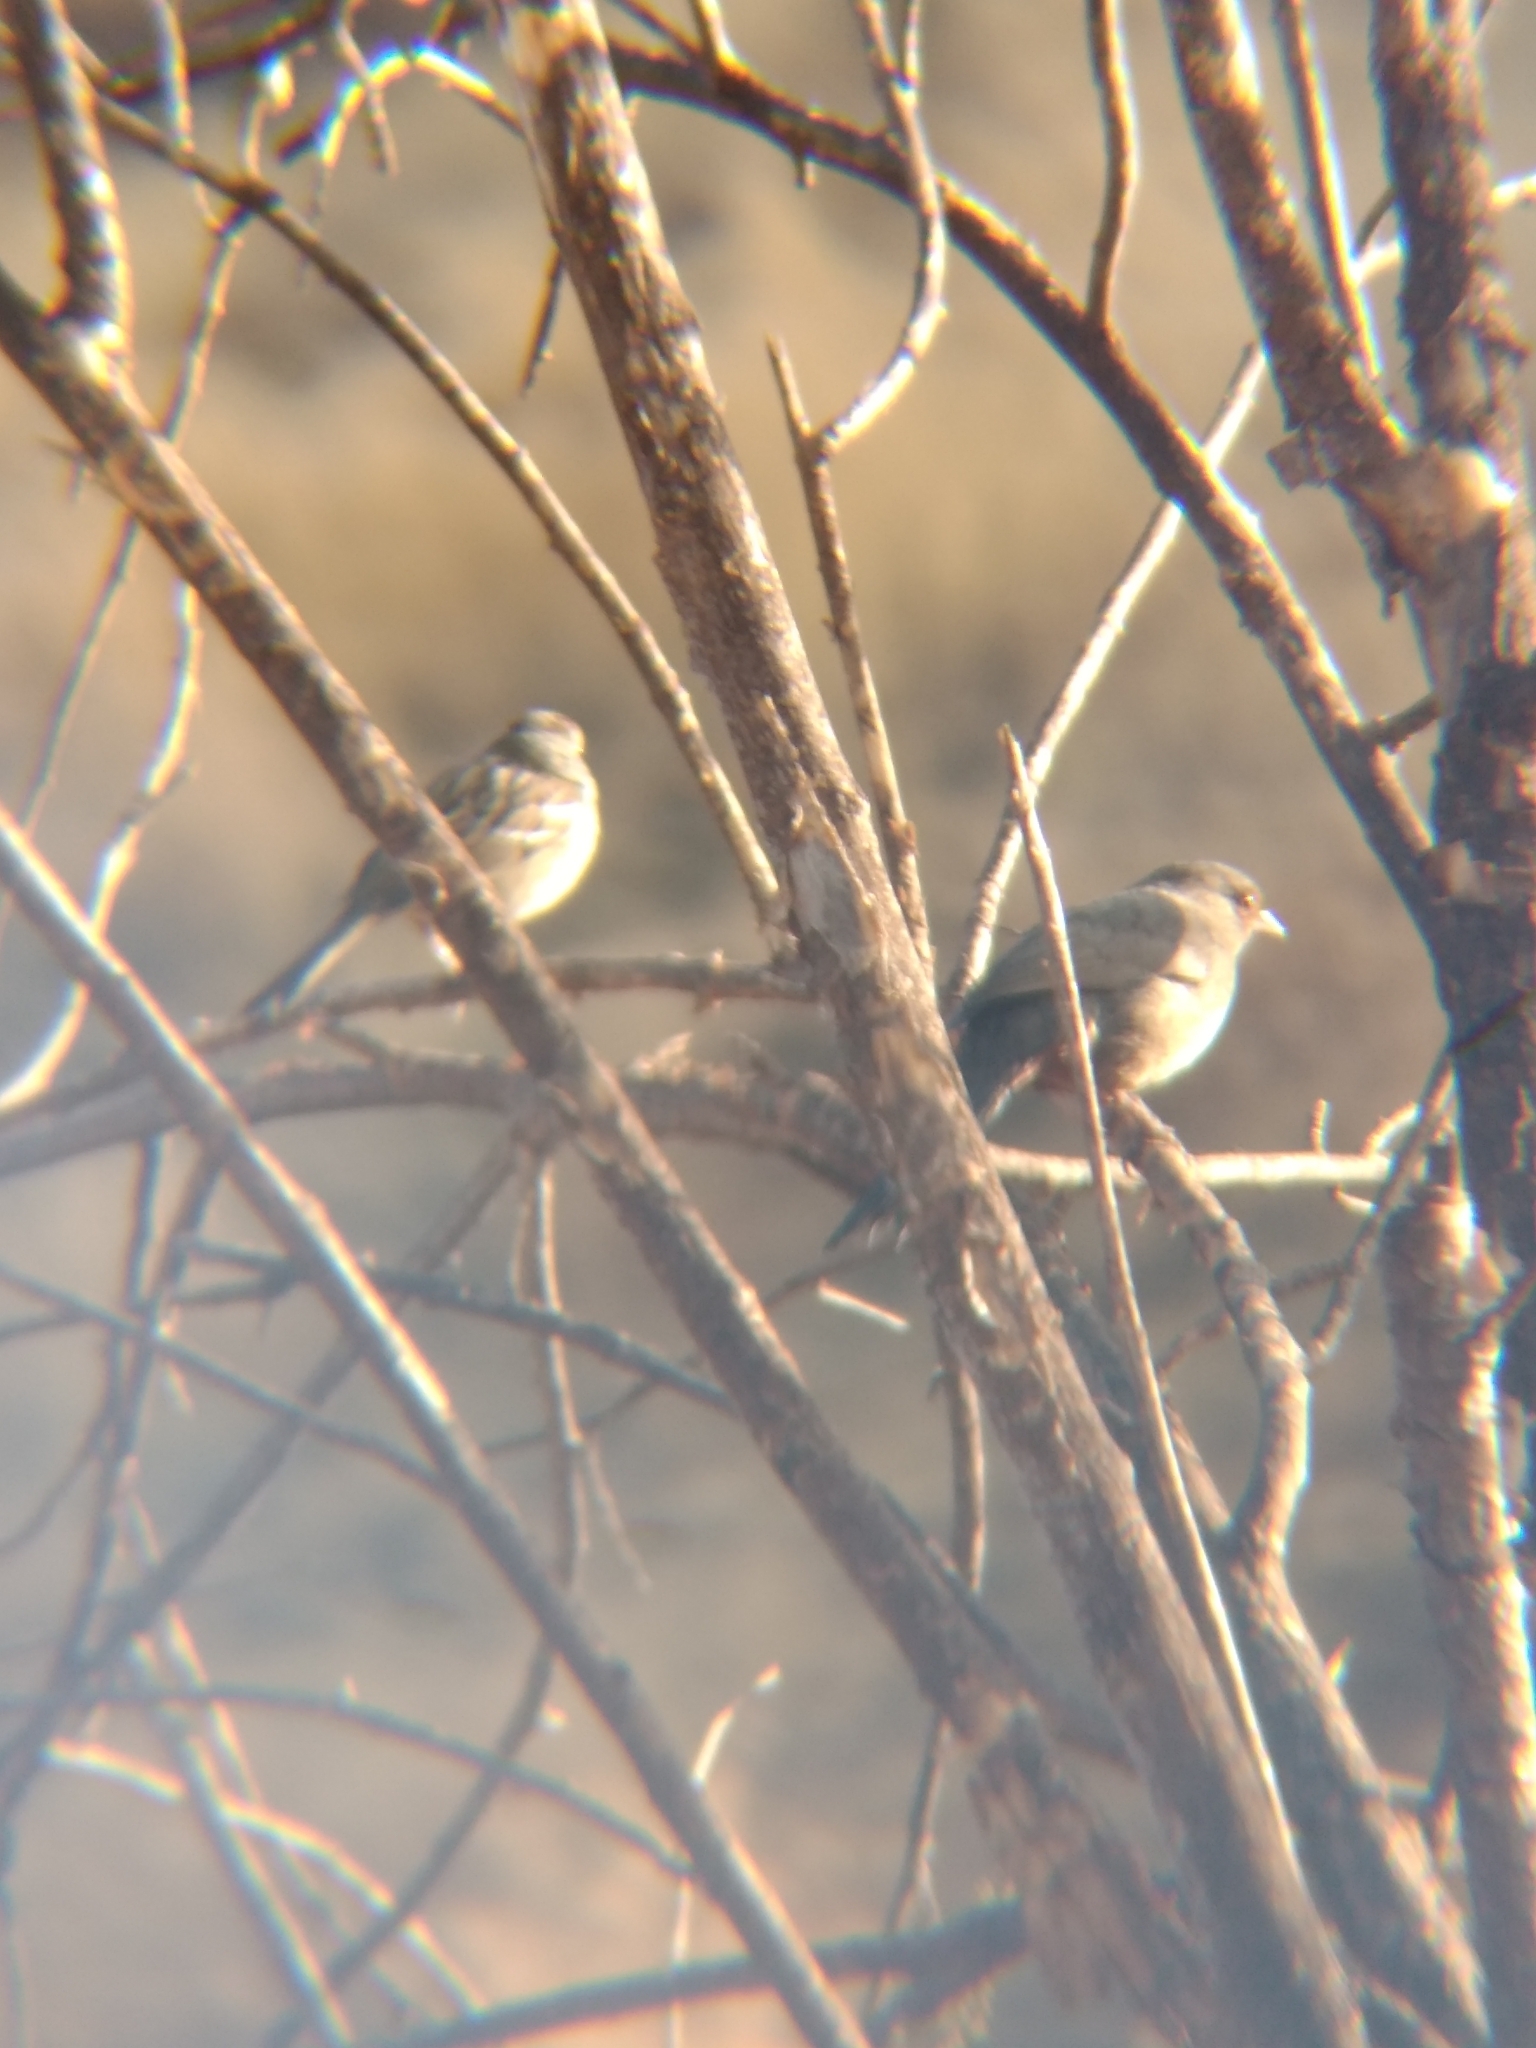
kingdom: Animalia
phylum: Chordata
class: Aves
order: Passeriformes
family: Passerellidae
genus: Melozone
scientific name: Melozone crissalis
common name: California towhee
